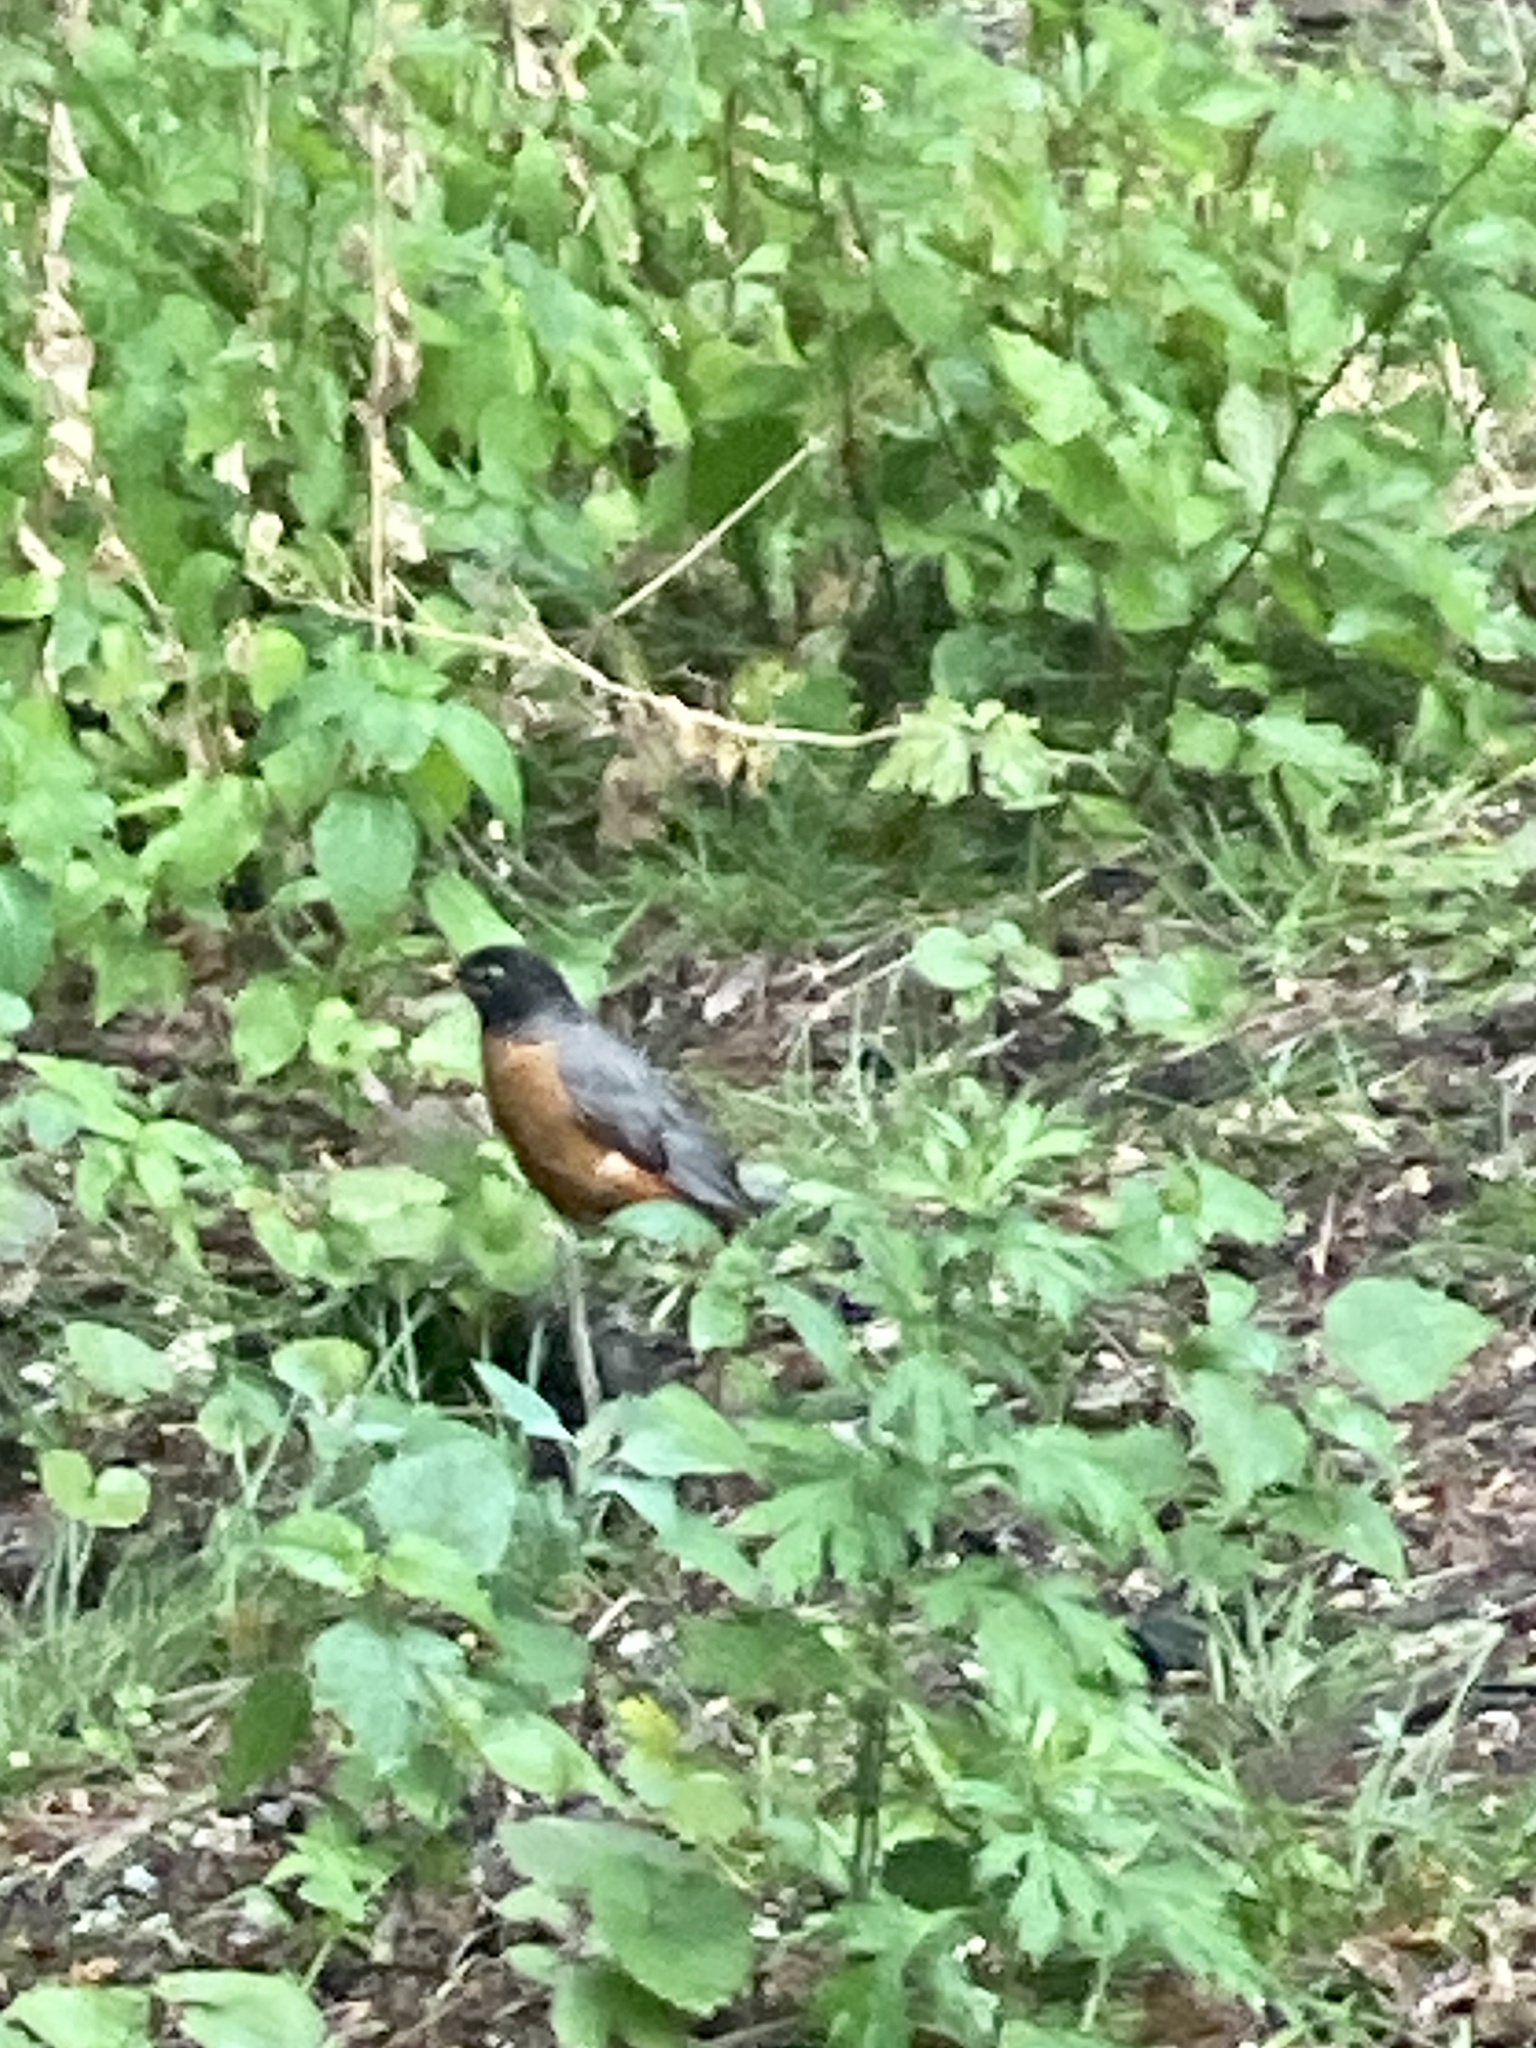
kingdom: Animalia
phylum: Chordata
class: Aves
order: Passeriformes
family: Turdidae
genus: Turdus
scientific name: Turdus migratorius
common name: American robin
